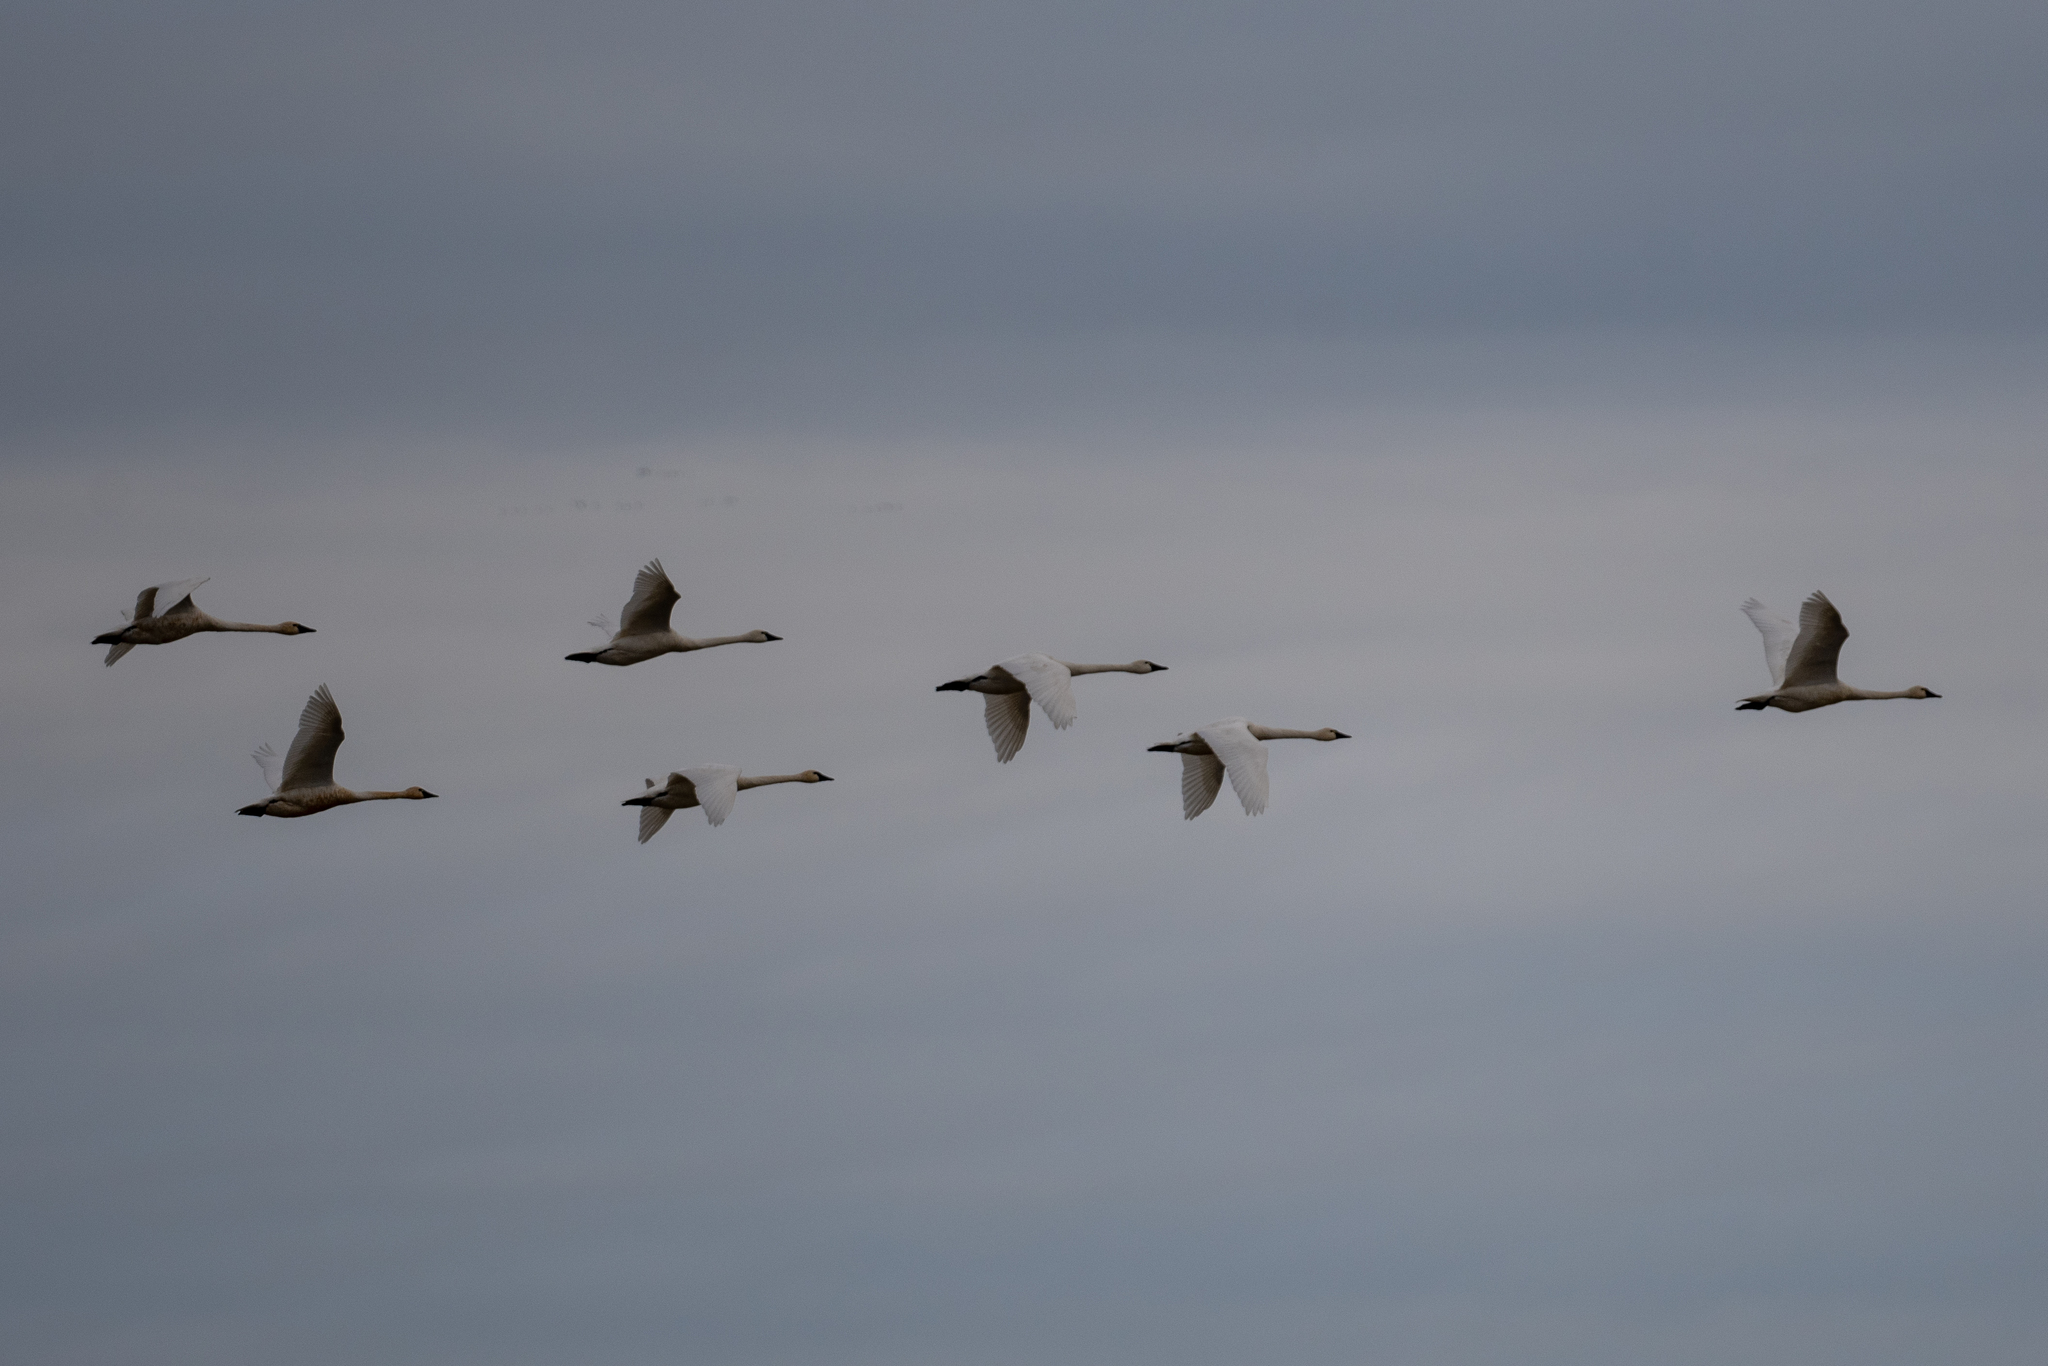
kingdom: Animalia
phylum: Chordata
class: Aves
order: Anseriformes
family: Anatidae
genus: Cygnus
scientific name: Cygnus columbianus
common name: Tundra swan
